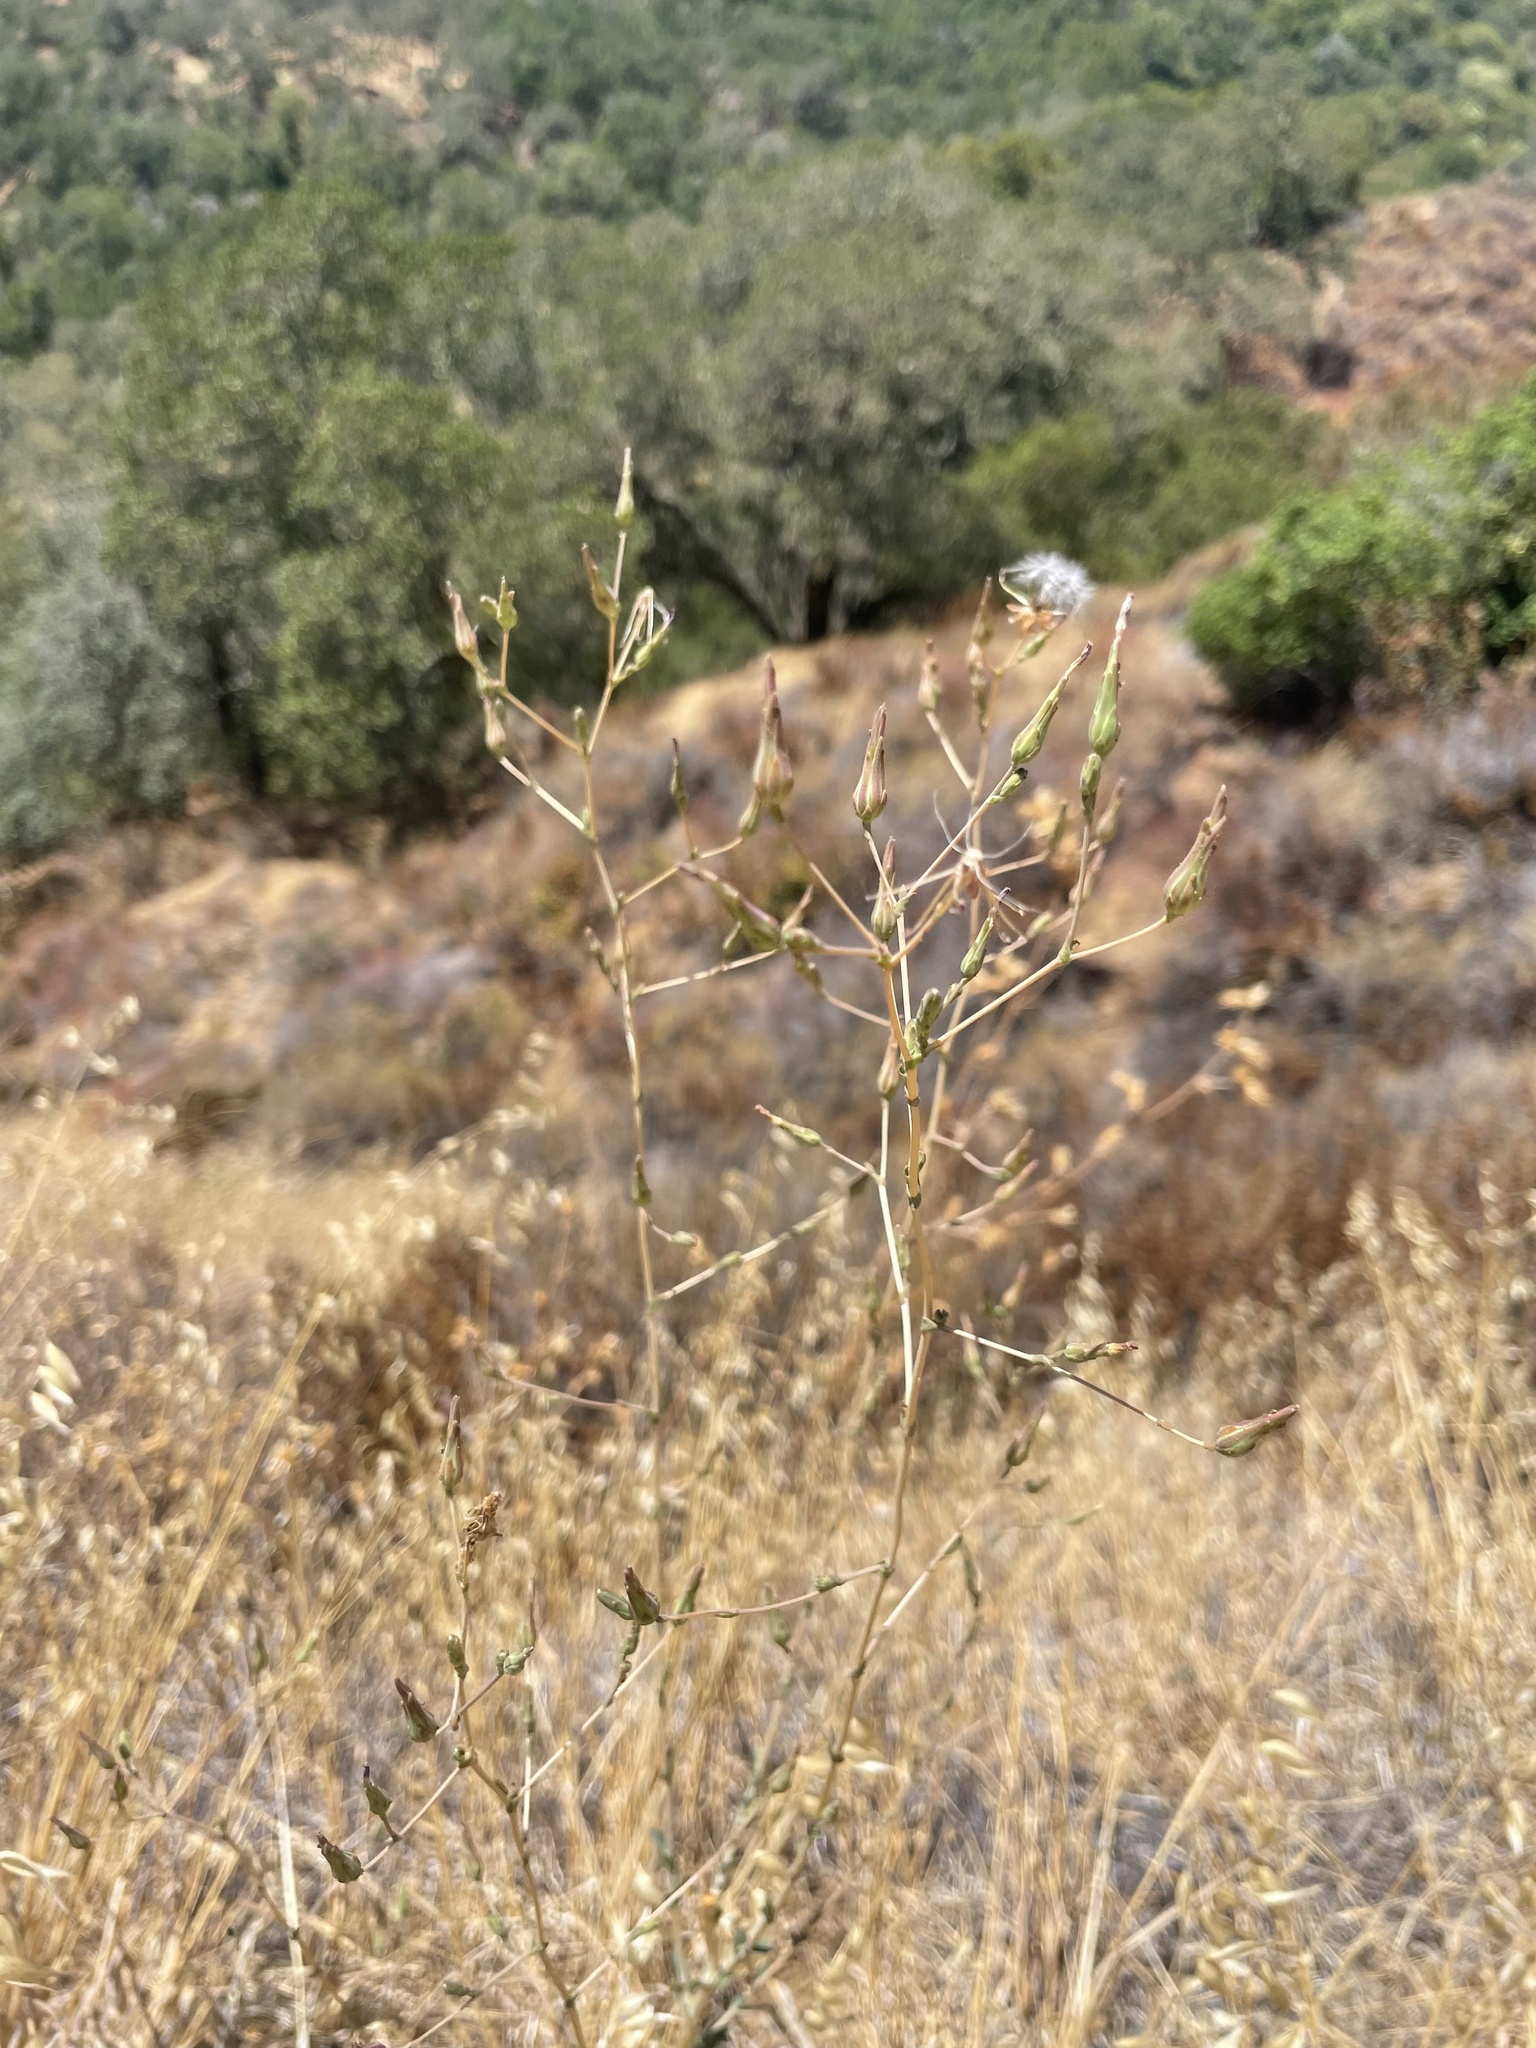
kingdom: Plantae
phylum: Tracheophyta
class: Magnoliopsida
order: Asterales
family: Asteraceae
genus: Lactuca
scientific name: Lactuca serriola
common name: Prickly lettuce
